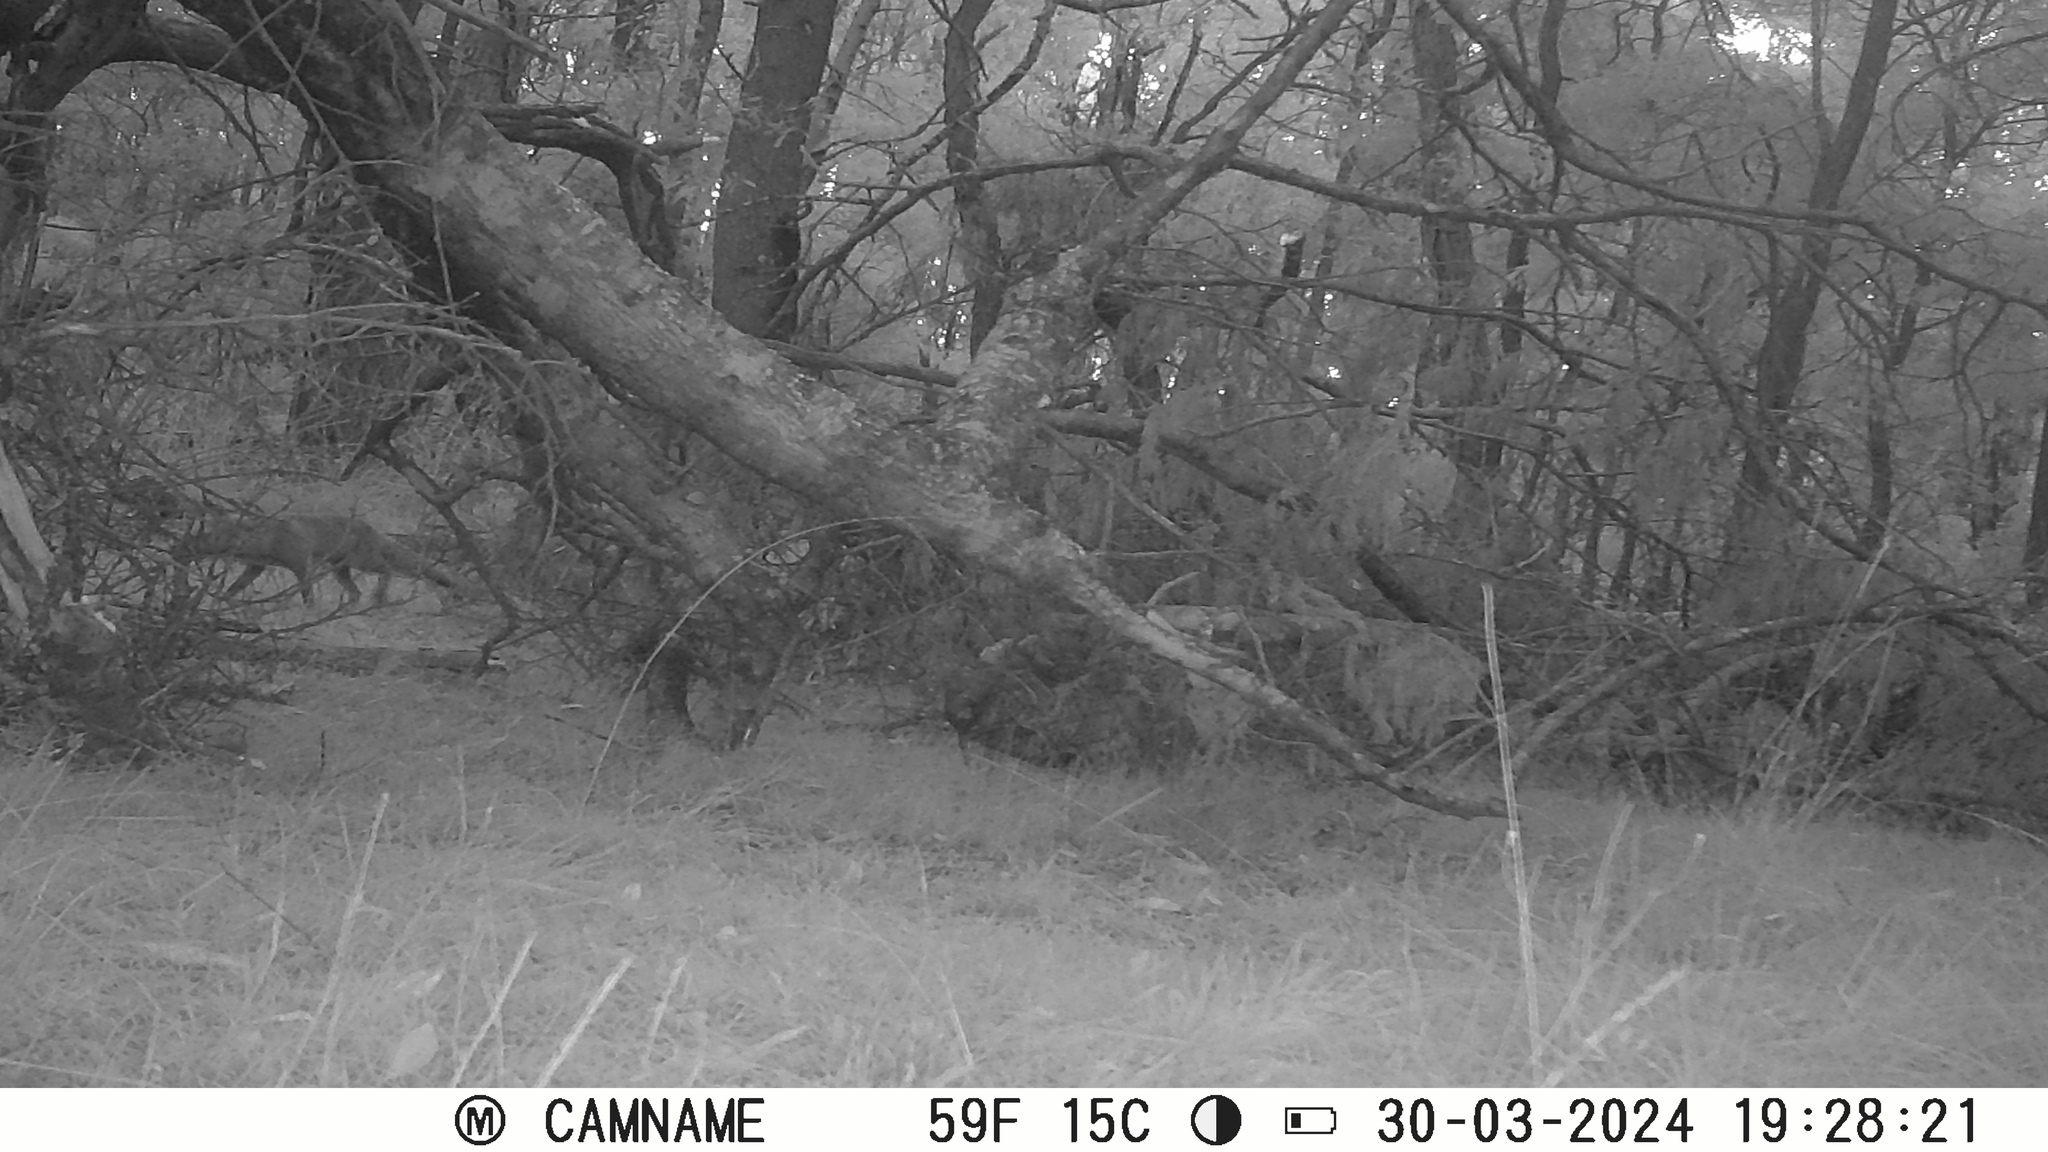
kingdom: Animalia
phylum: Chordata
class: Mammalia
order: Carnivora
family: Canidae
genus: Vulpes
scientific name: Vulpes vulpes
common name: Red fox
